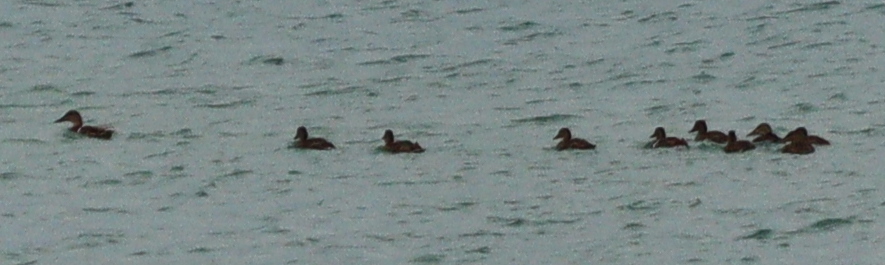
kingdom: Animalia
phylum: Chordata
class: Aves
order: Anseriformes
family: Anatidae
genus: Anas
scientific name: Anas platyrhynchos
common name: Mallard
